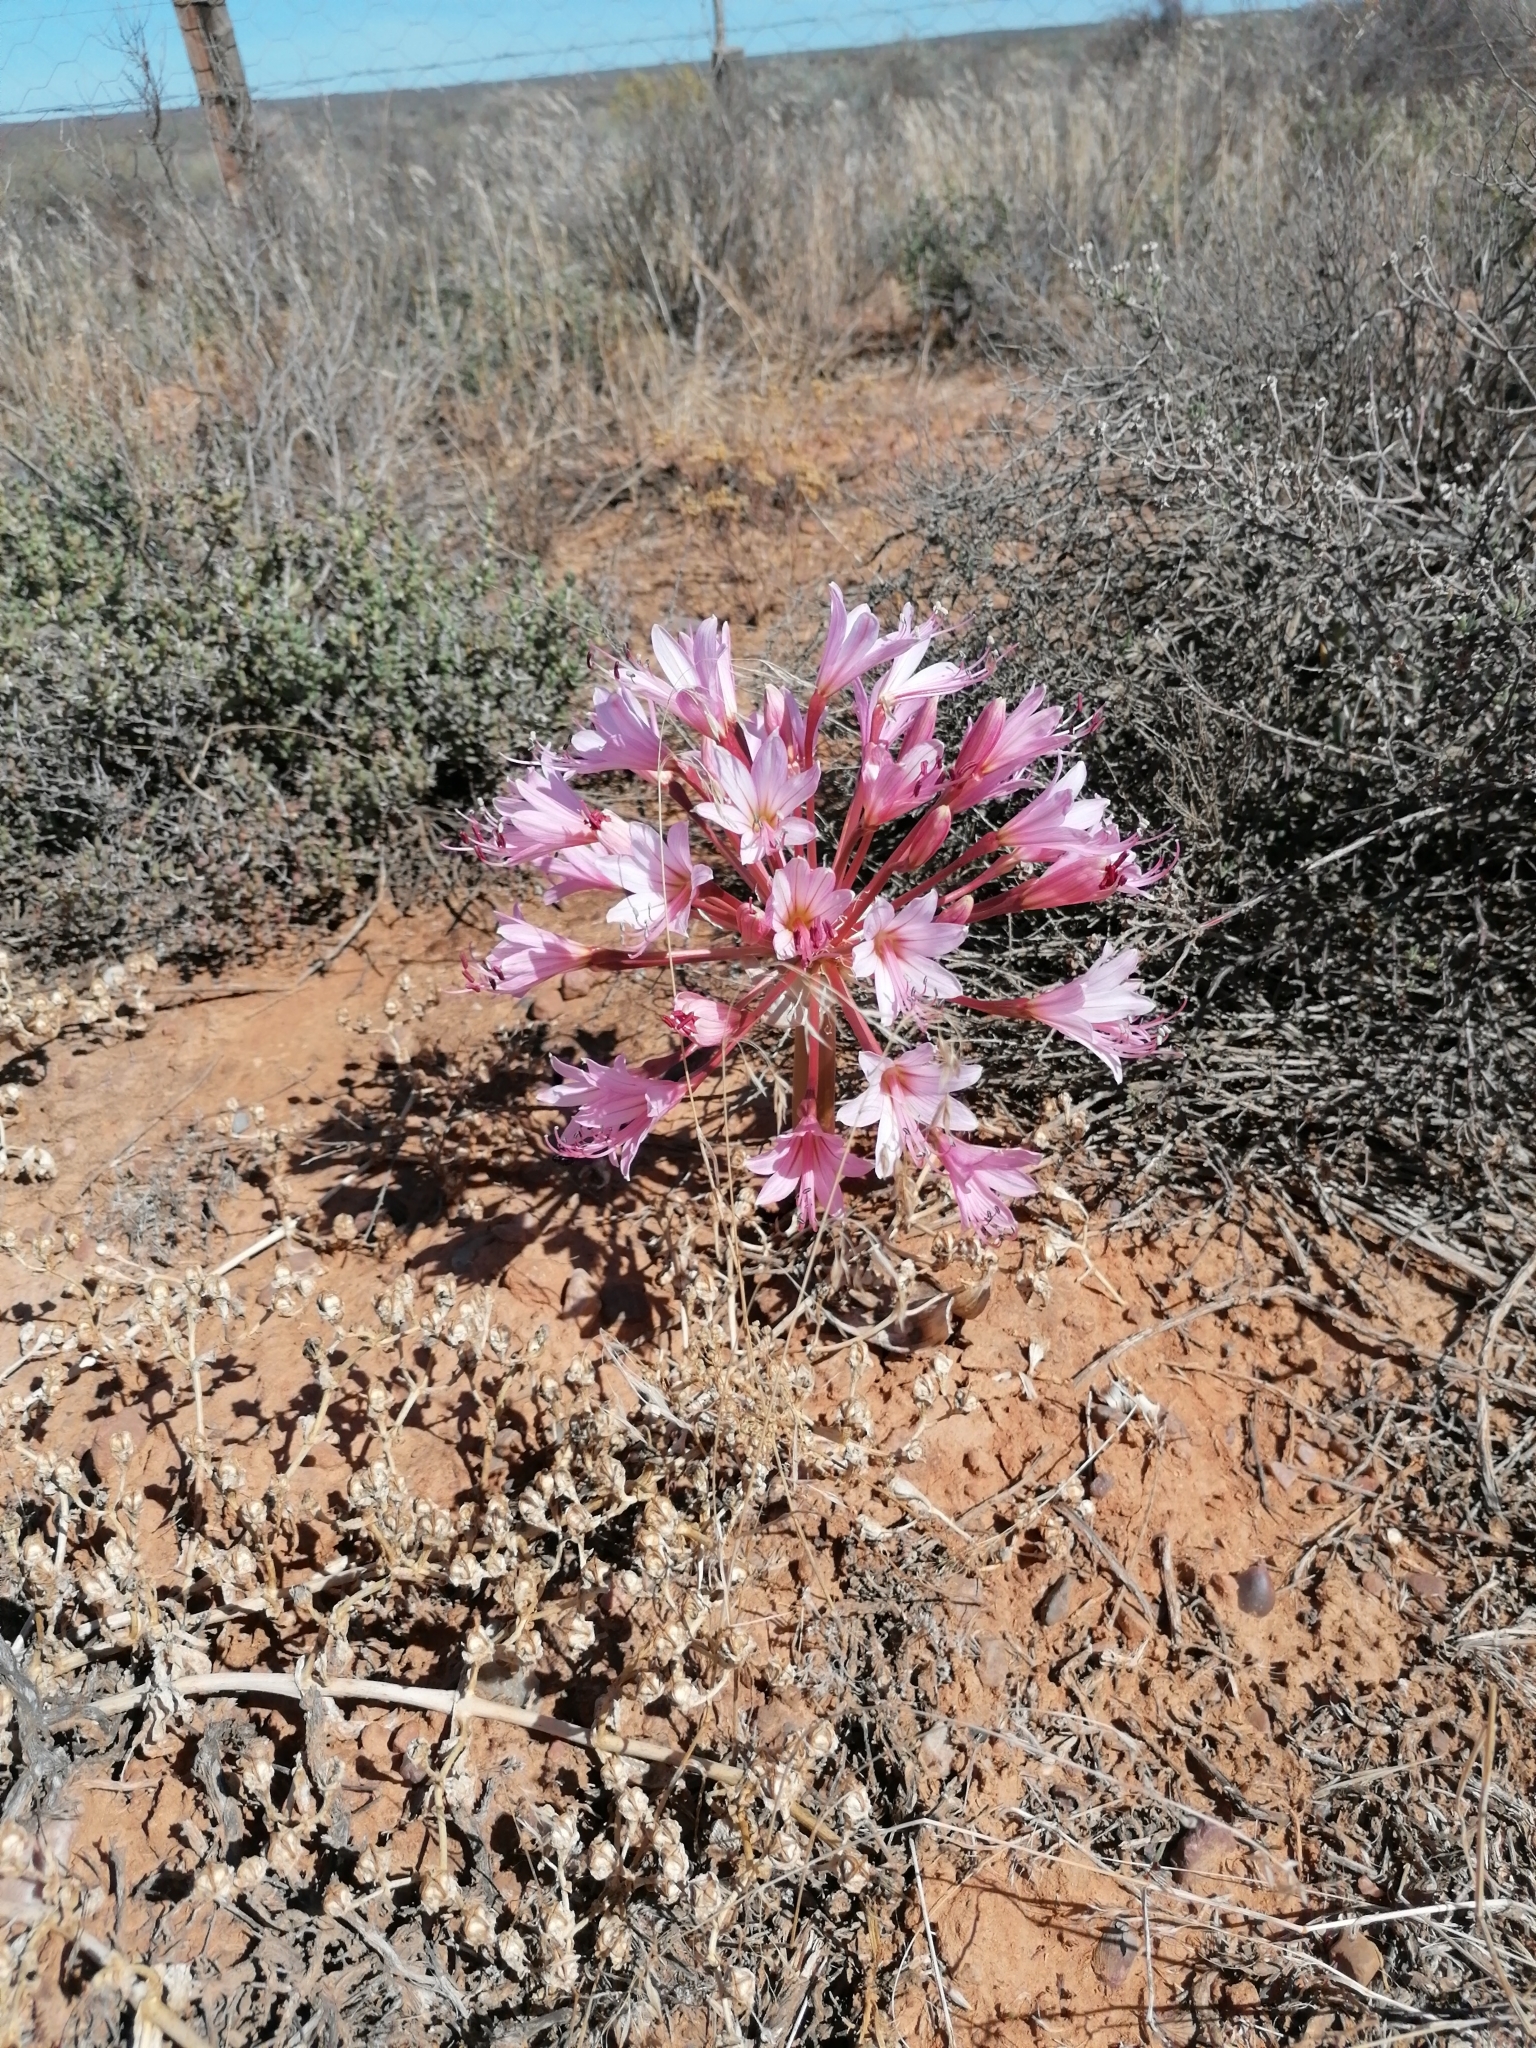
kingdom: Plantae
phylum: Tracheophyta
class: Liliopsida
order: Asparagales
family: Amaryllidaceae
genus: Brunsvigia
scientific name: Brunsvigia bosmaniae
